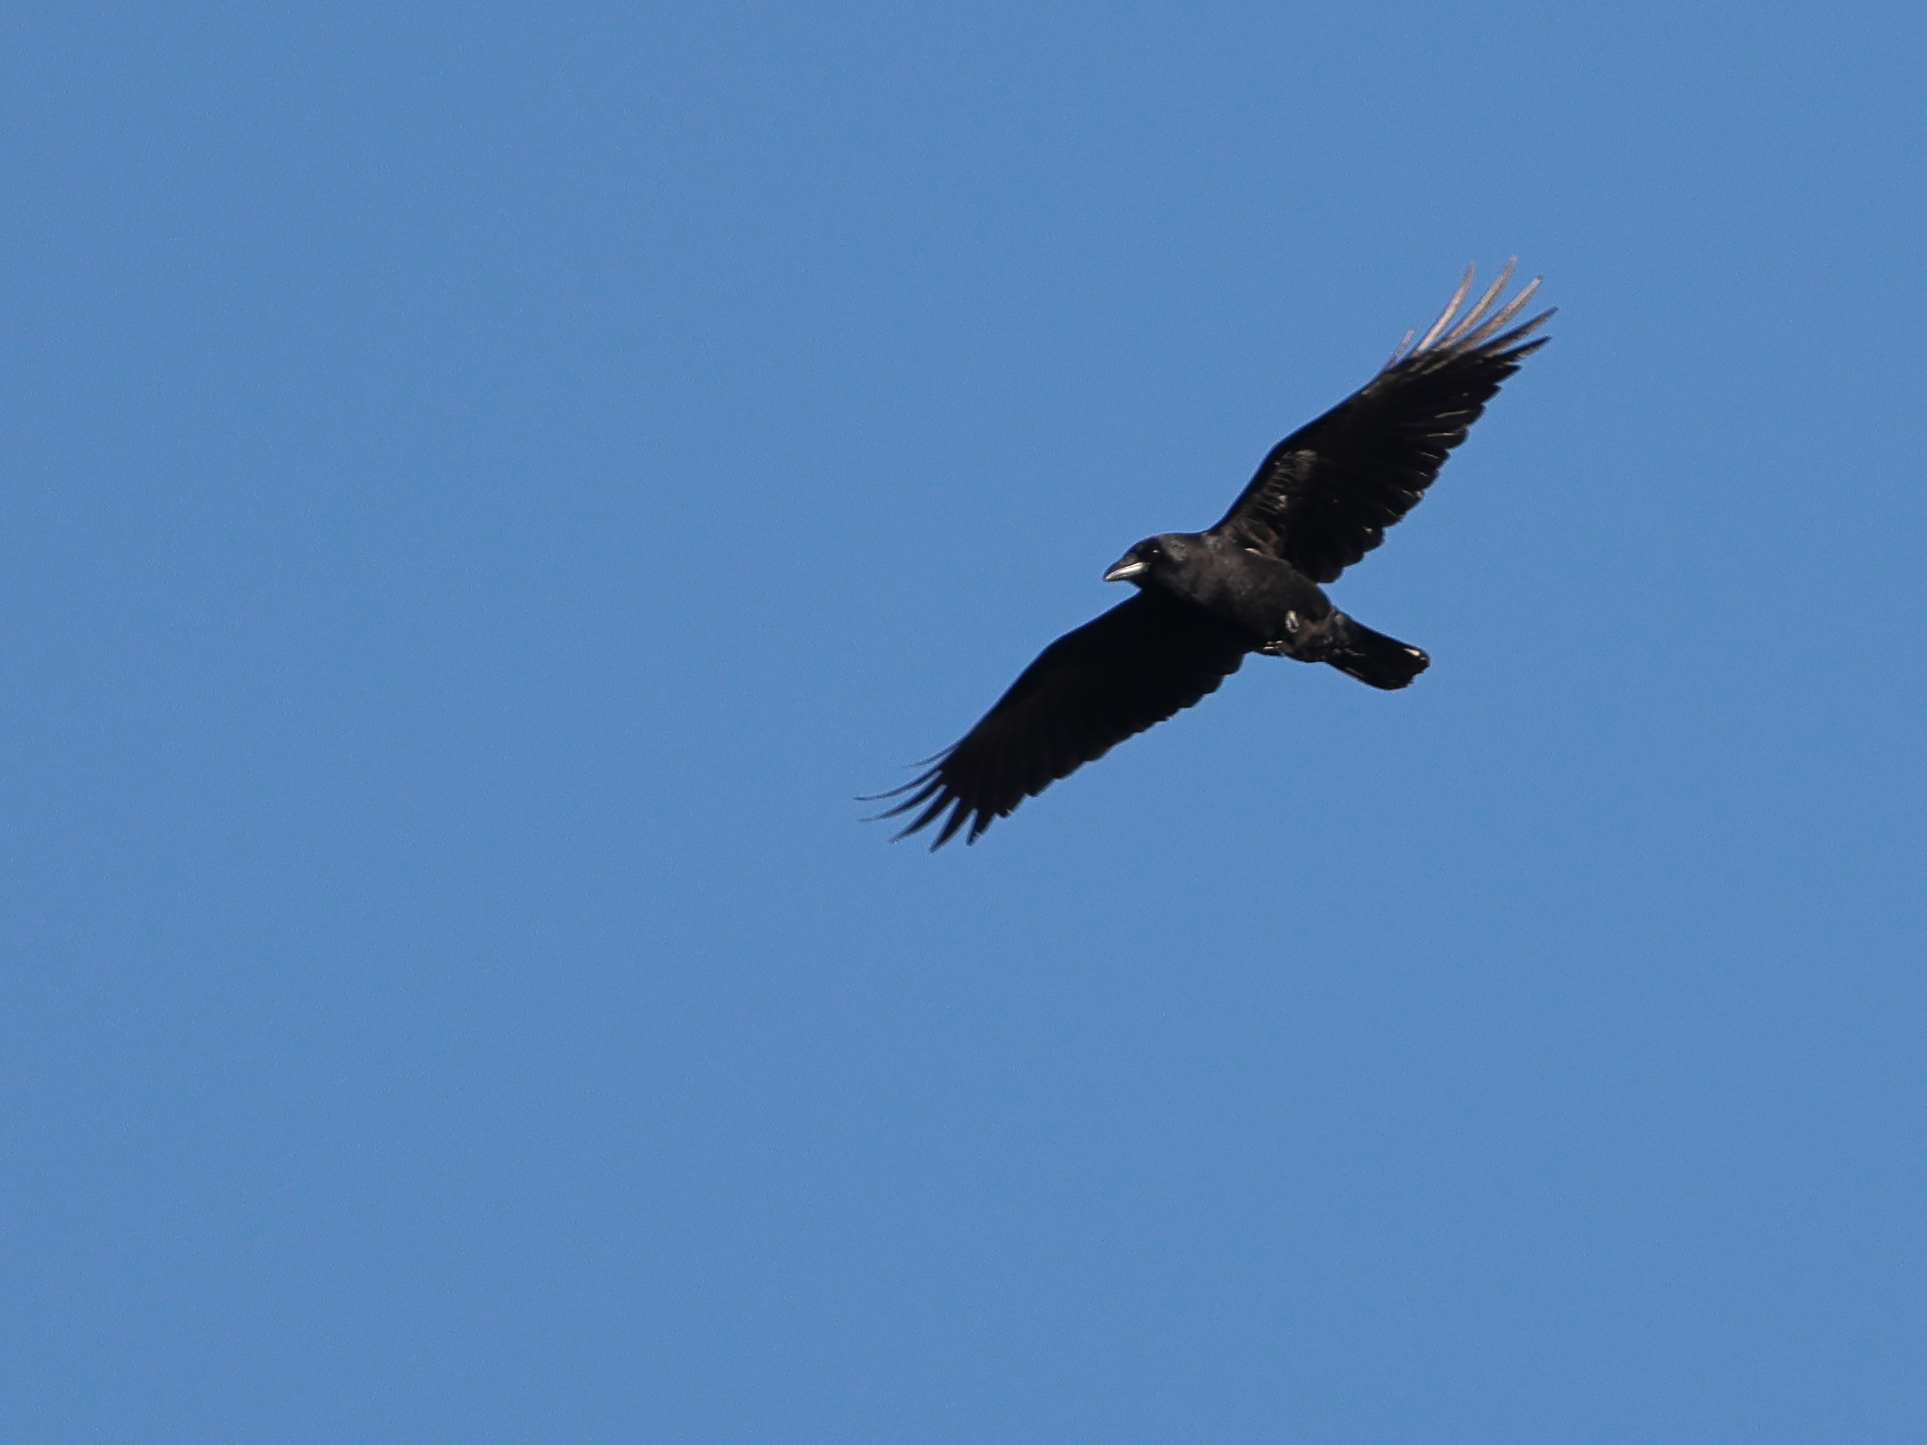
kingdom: Animalia
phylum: Chordata
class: Aves
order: Passeriformes
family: Corvidae
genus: Corvus
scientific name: Corvus brachyrhynchos
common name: American crow
